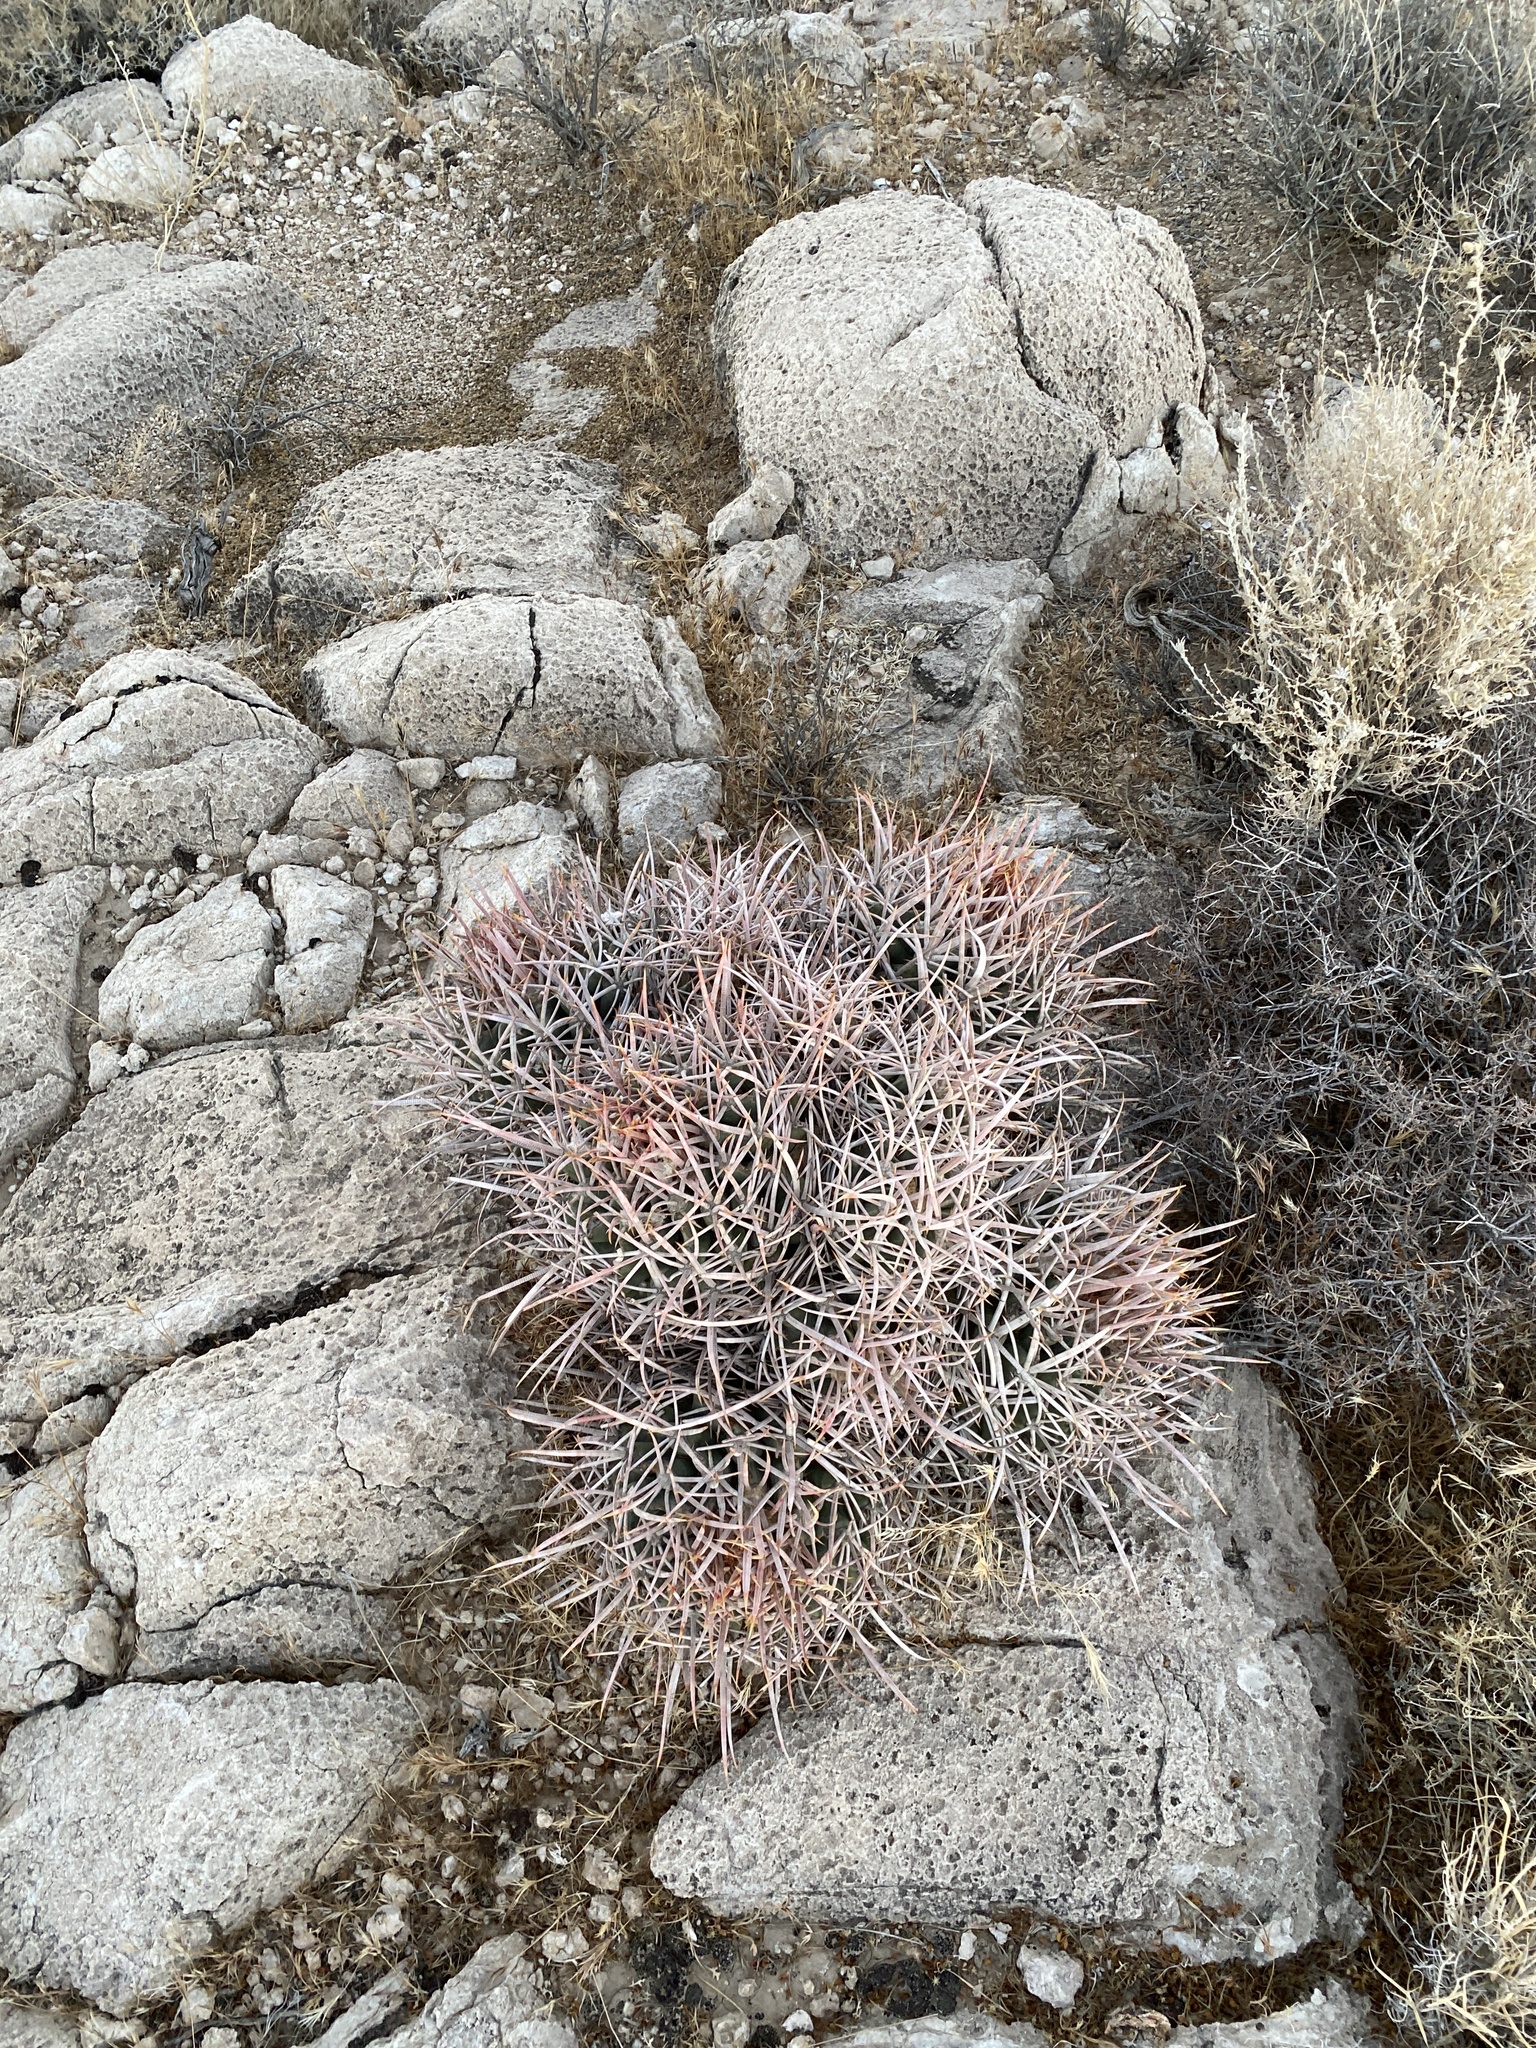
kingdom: Plantae
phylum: Tracheophyta
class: Magnoliopsida
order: Caryophyllales
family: Cactaceae
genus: Echinocactus
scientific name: Echinocactus polycephalus
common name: Cottontop cactus
